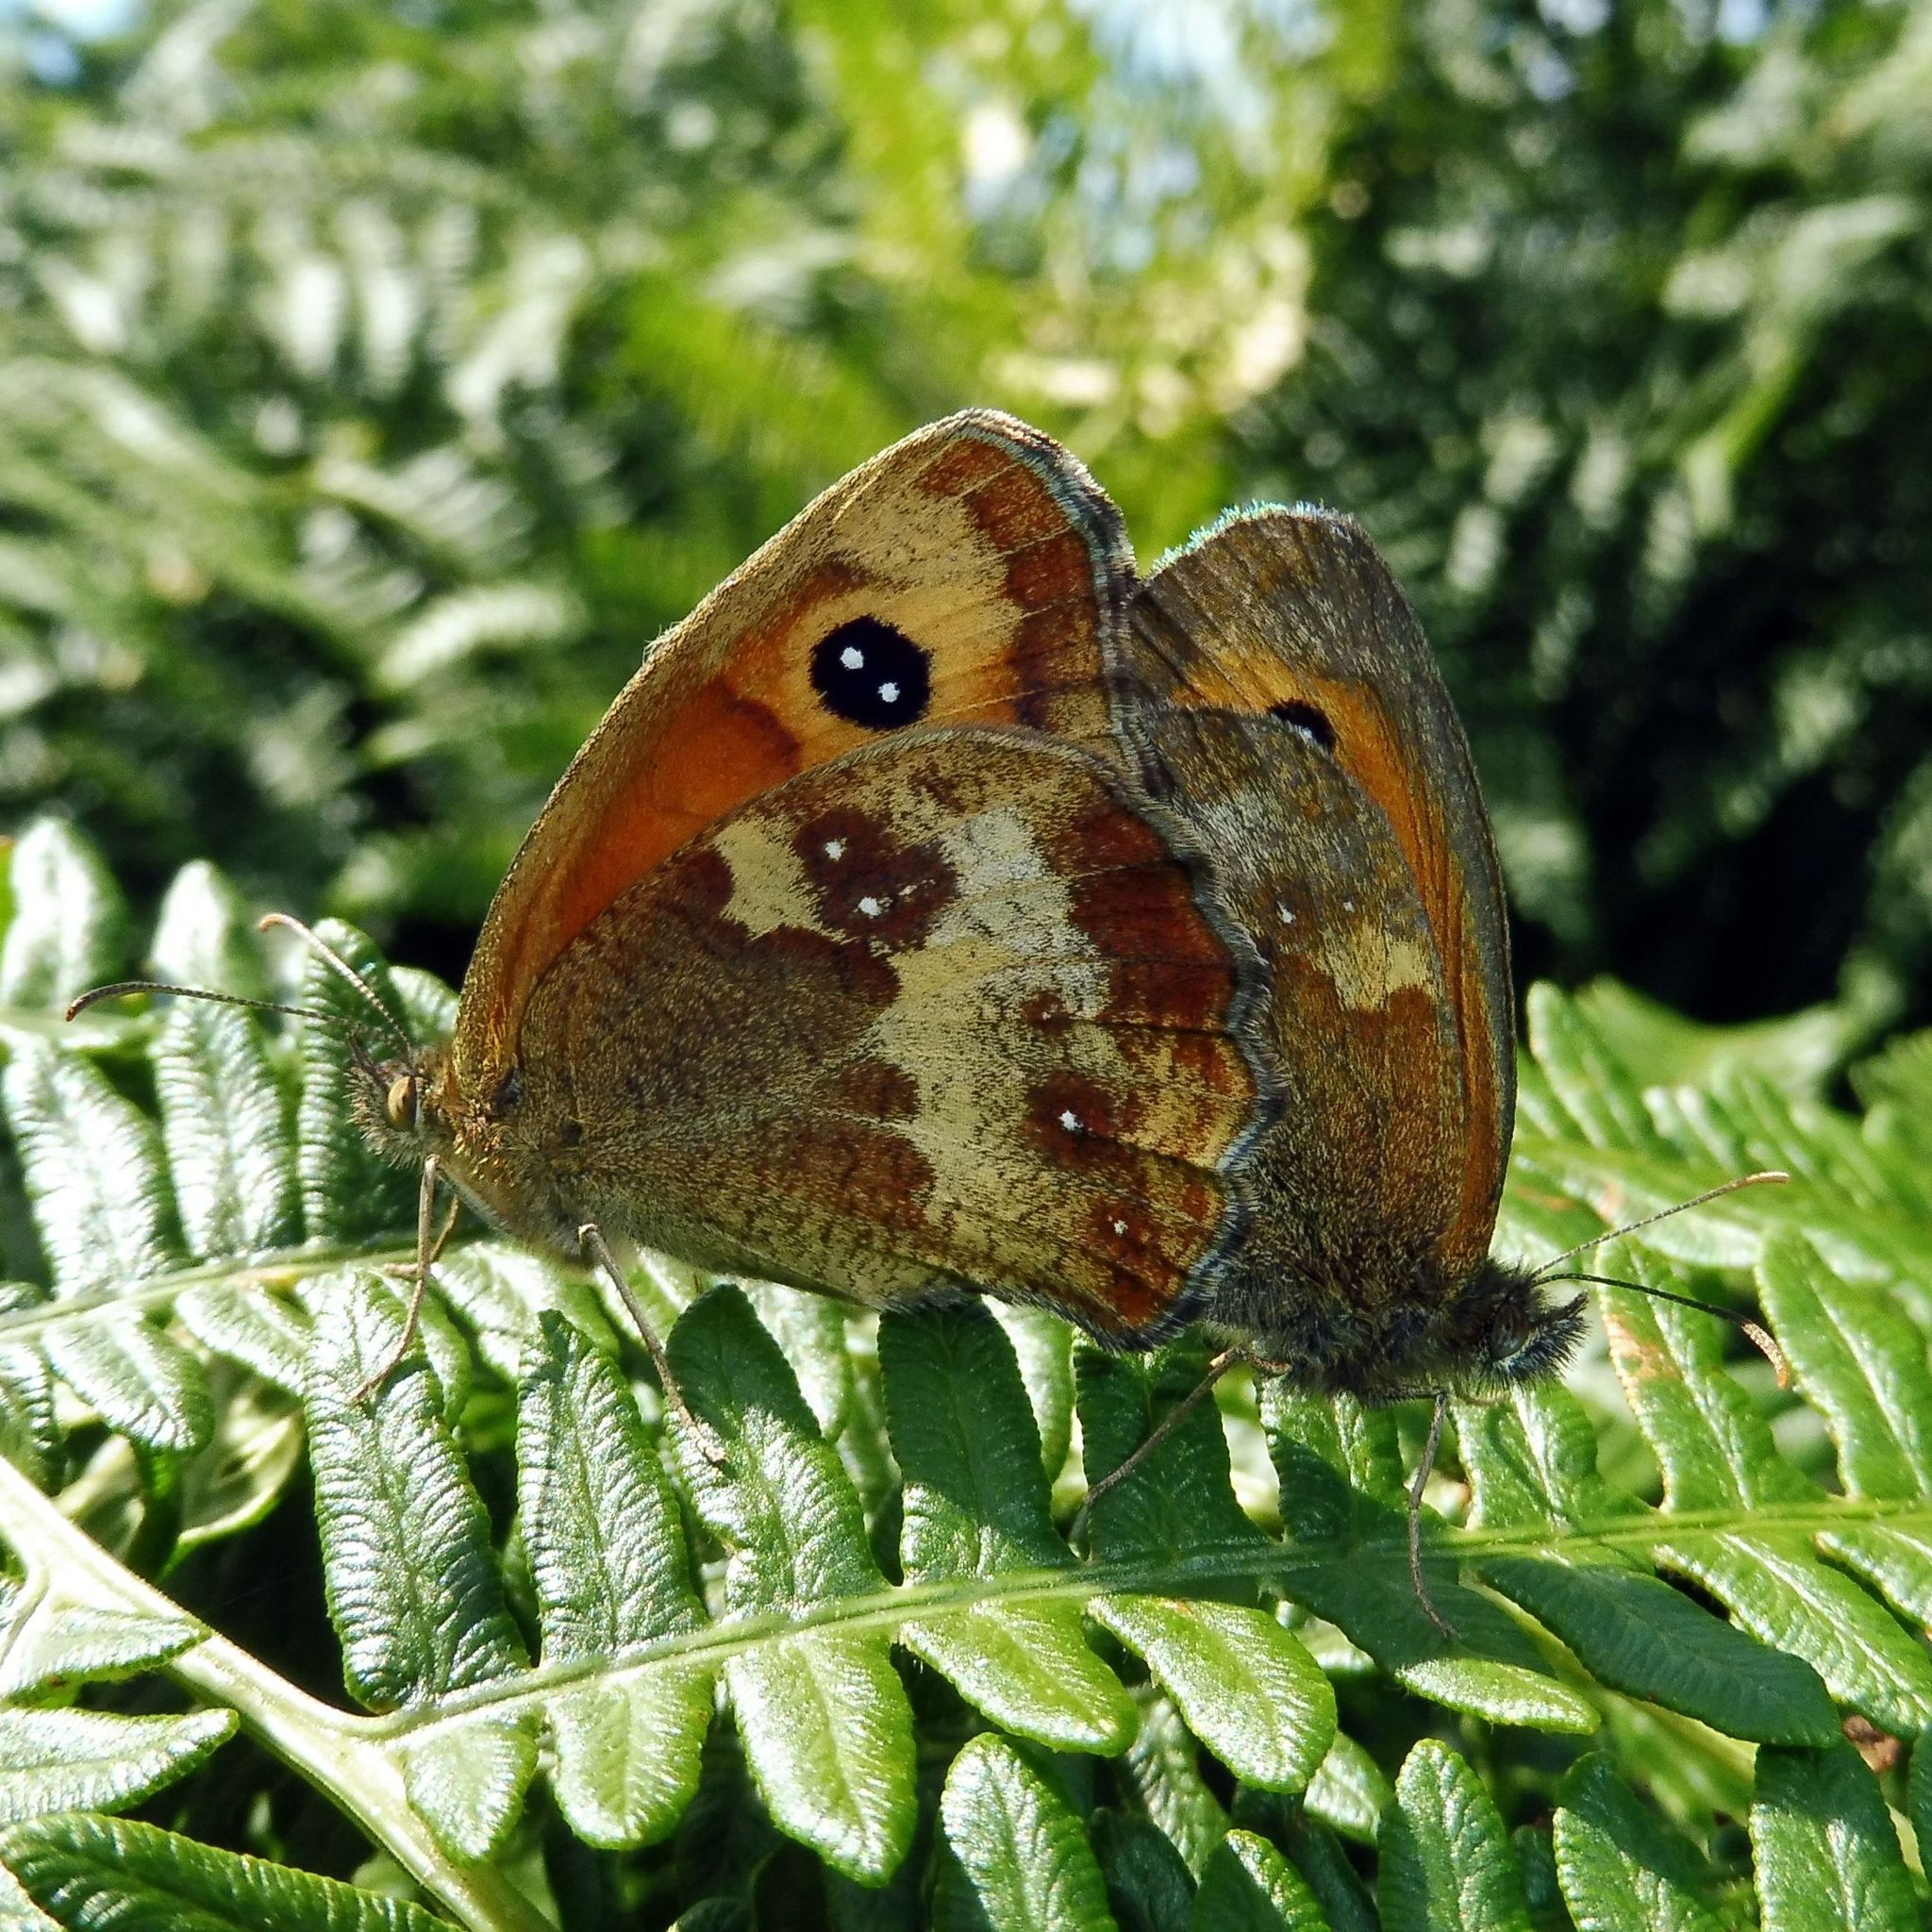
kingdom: Animalia
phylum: Arthropoda
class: Insecta
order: Lepidoptera
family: Nymphalidae
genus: Pyronia
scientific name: Pyronia tithonus
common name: Gatekeeper
